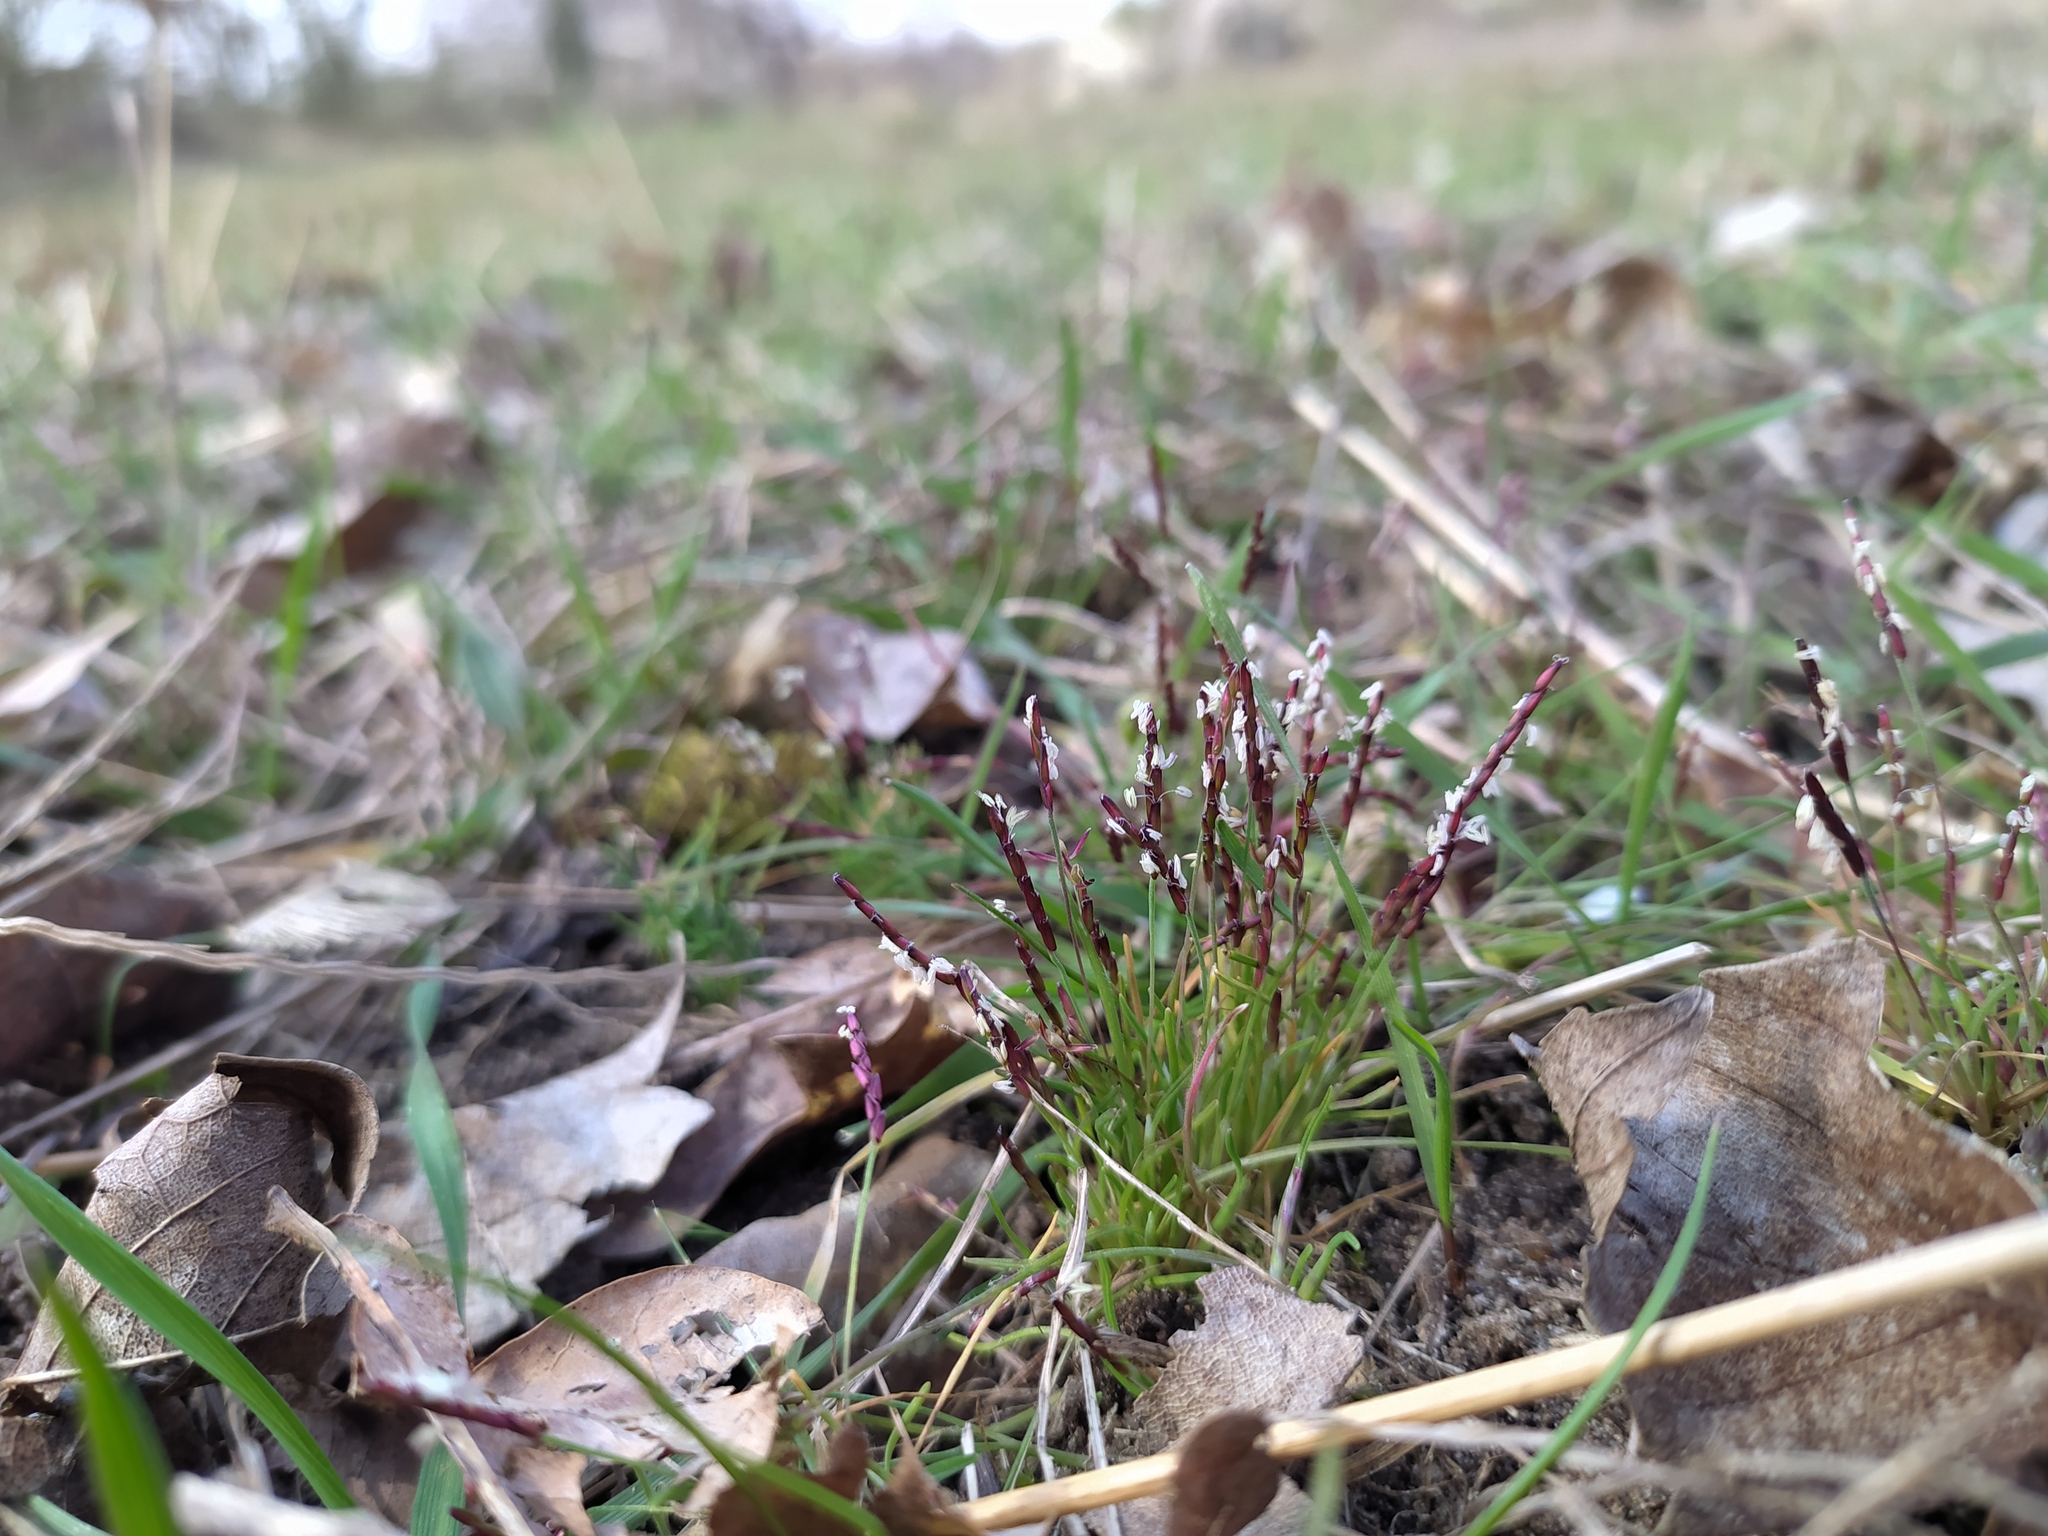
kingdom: Plantae
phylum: Tracheophyta
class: Liliopsida
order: Poales
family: Poaceae
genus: Mibora
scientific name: Mibora minima
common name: Early sand-grass
